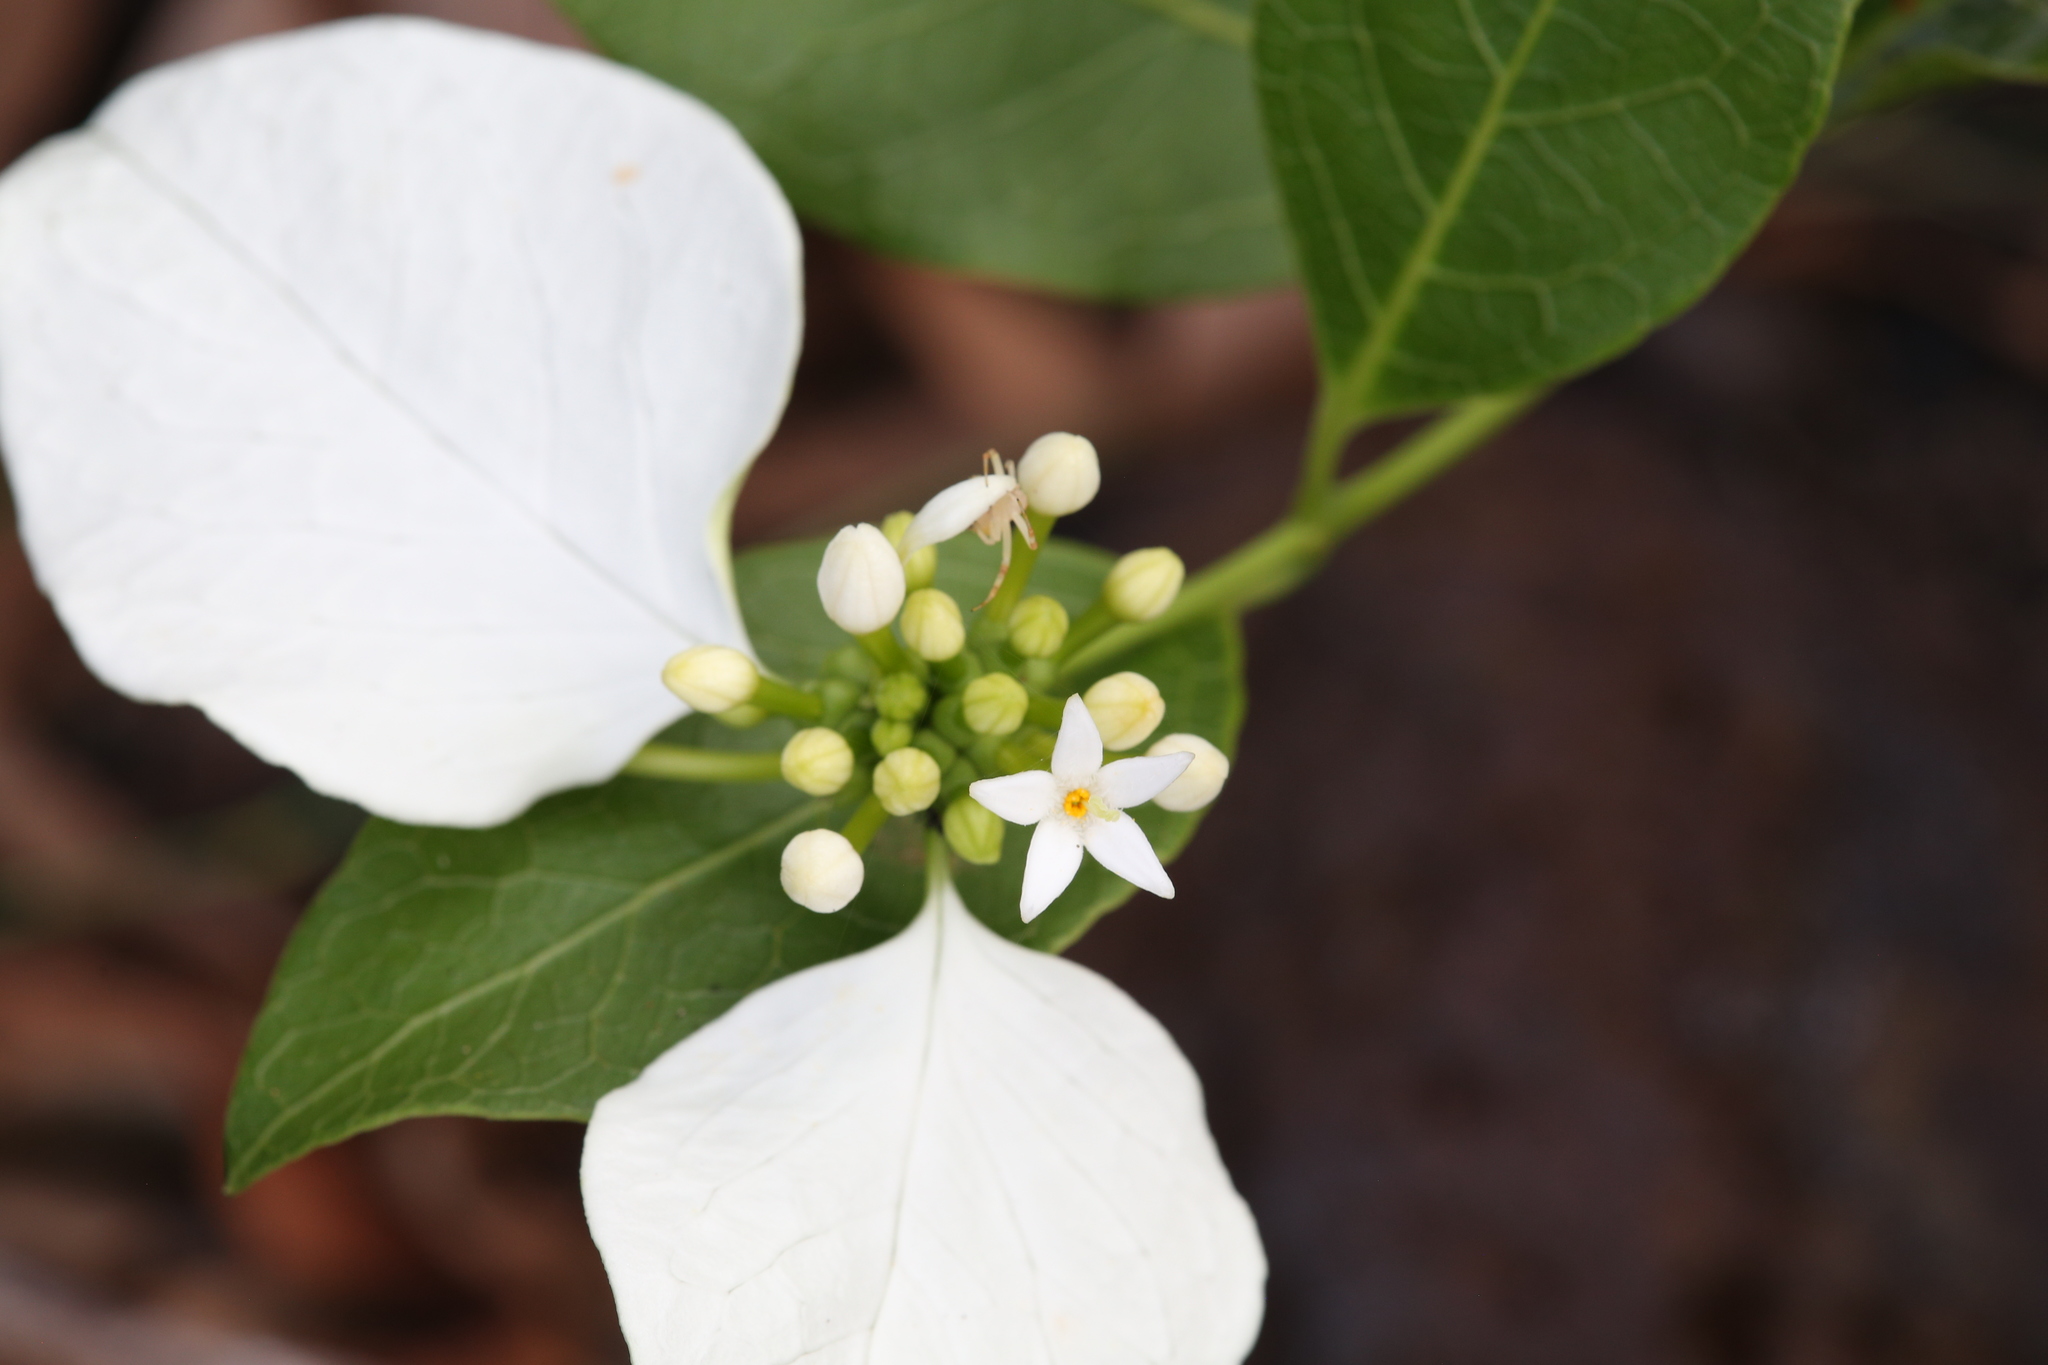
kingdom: Plantae
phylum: Tracheophyta
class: Magnoliopsida
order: Gentianales
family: Rubiaceae
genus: Coelospermum
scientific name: Coelospermum decipiens
